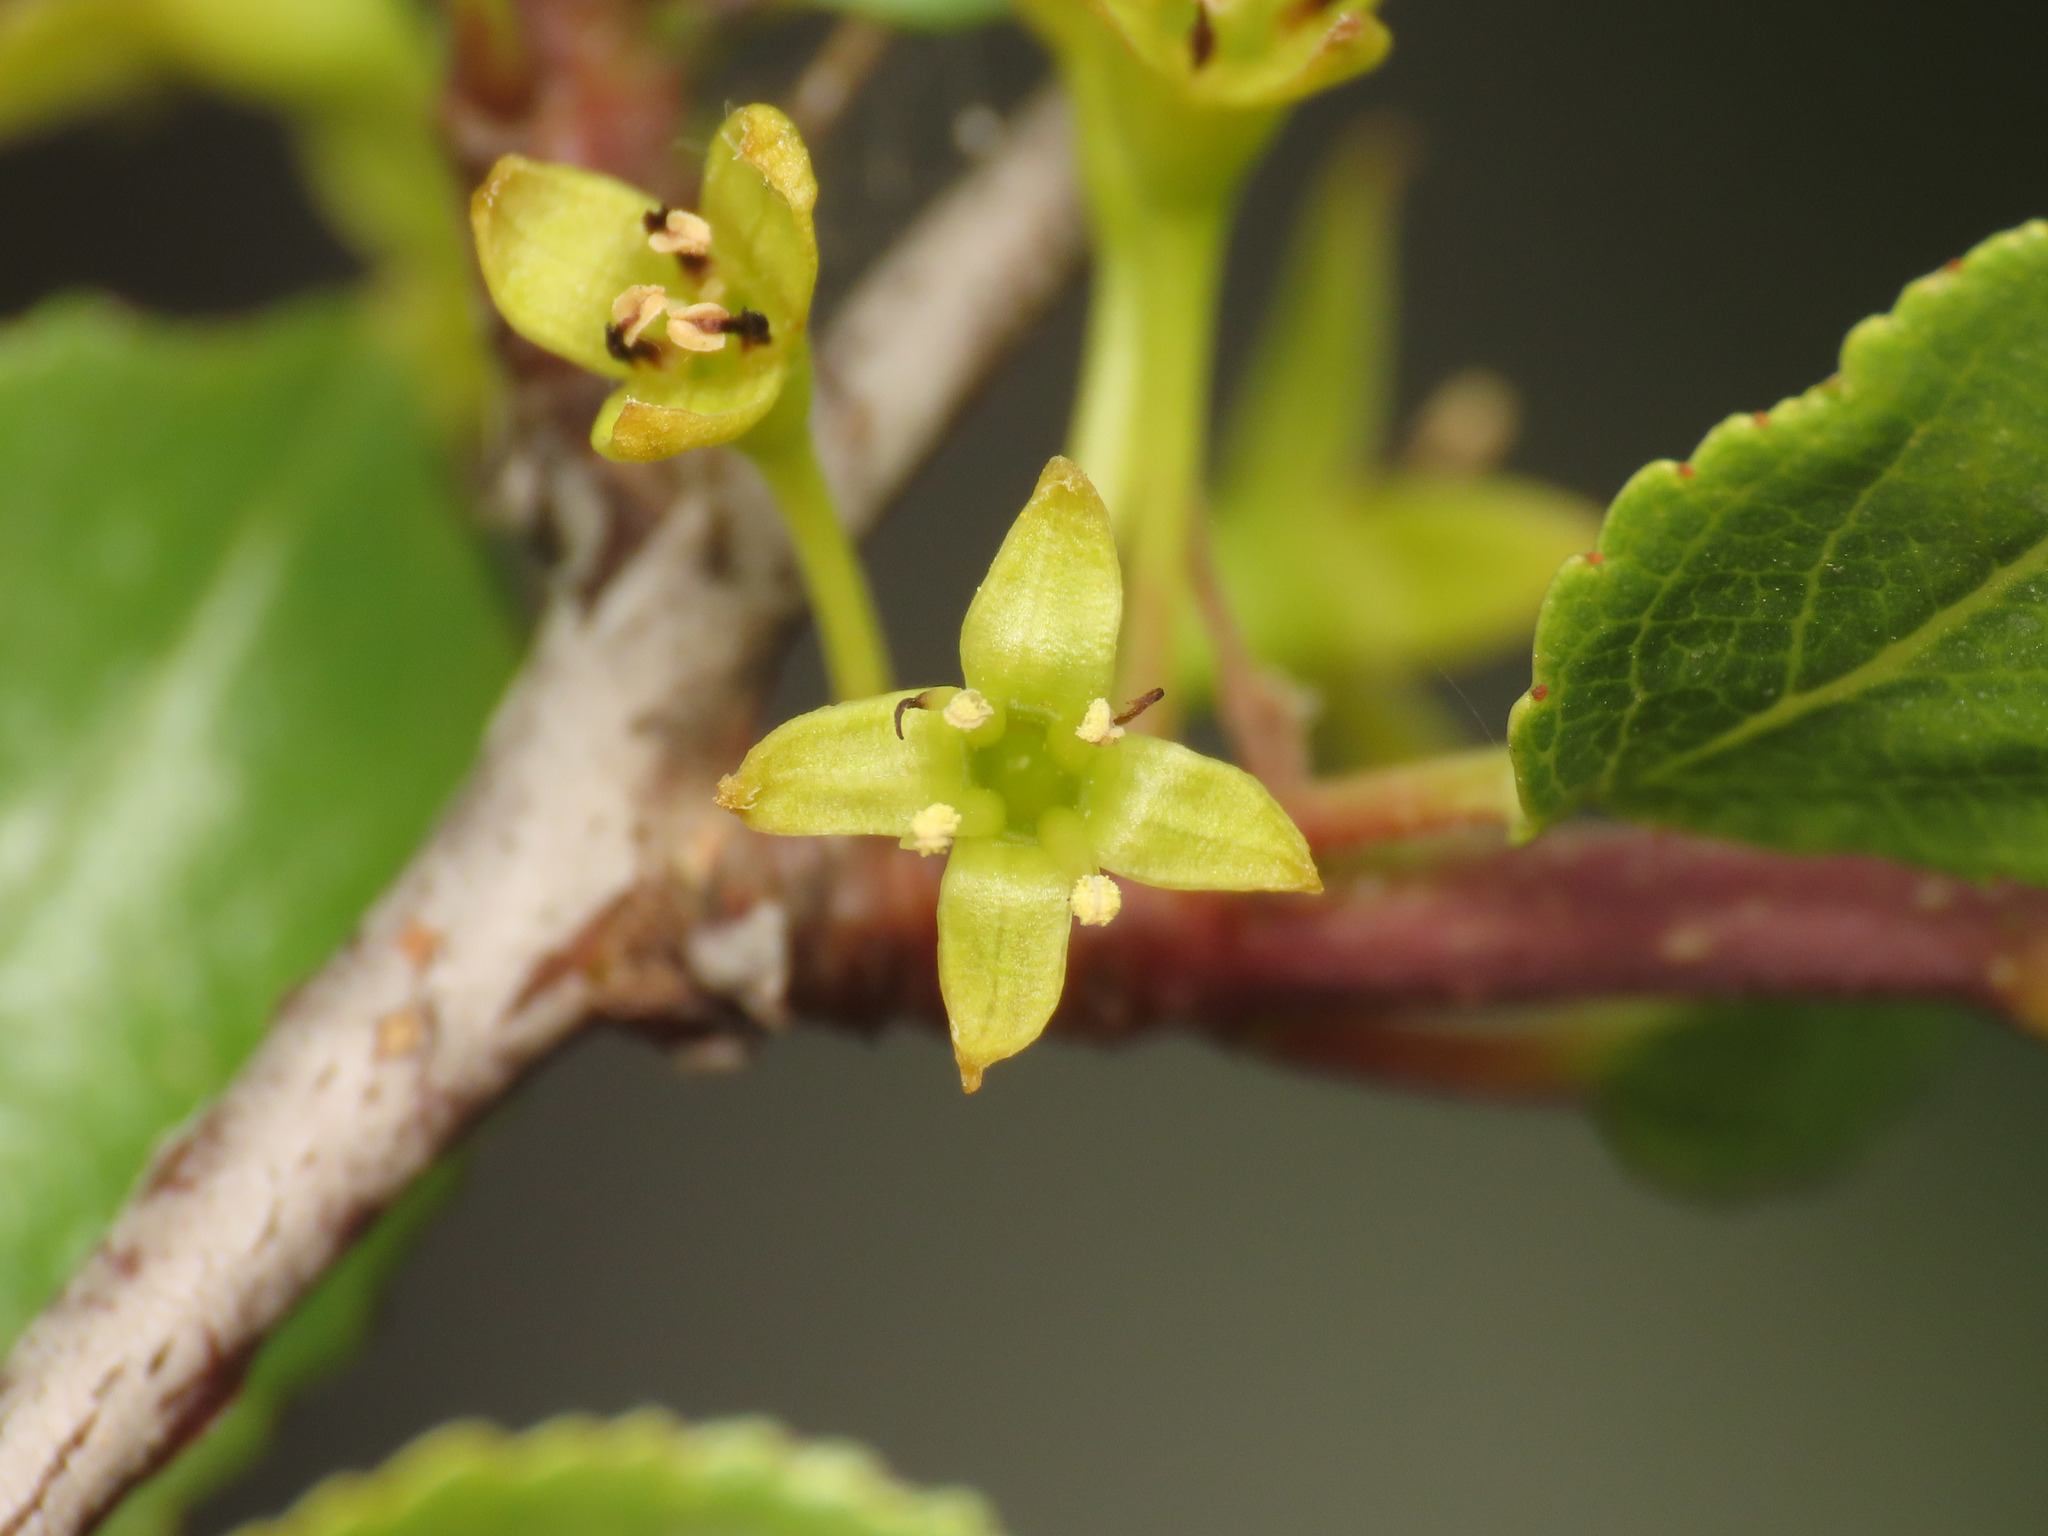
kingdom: Plantae
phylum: Tracheophyta
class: Magnoliopsida
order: Rosales
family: Rhamnaceae
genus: Rhamnus
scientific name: Rhamnus saxatilis
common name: Rock buckthorn
